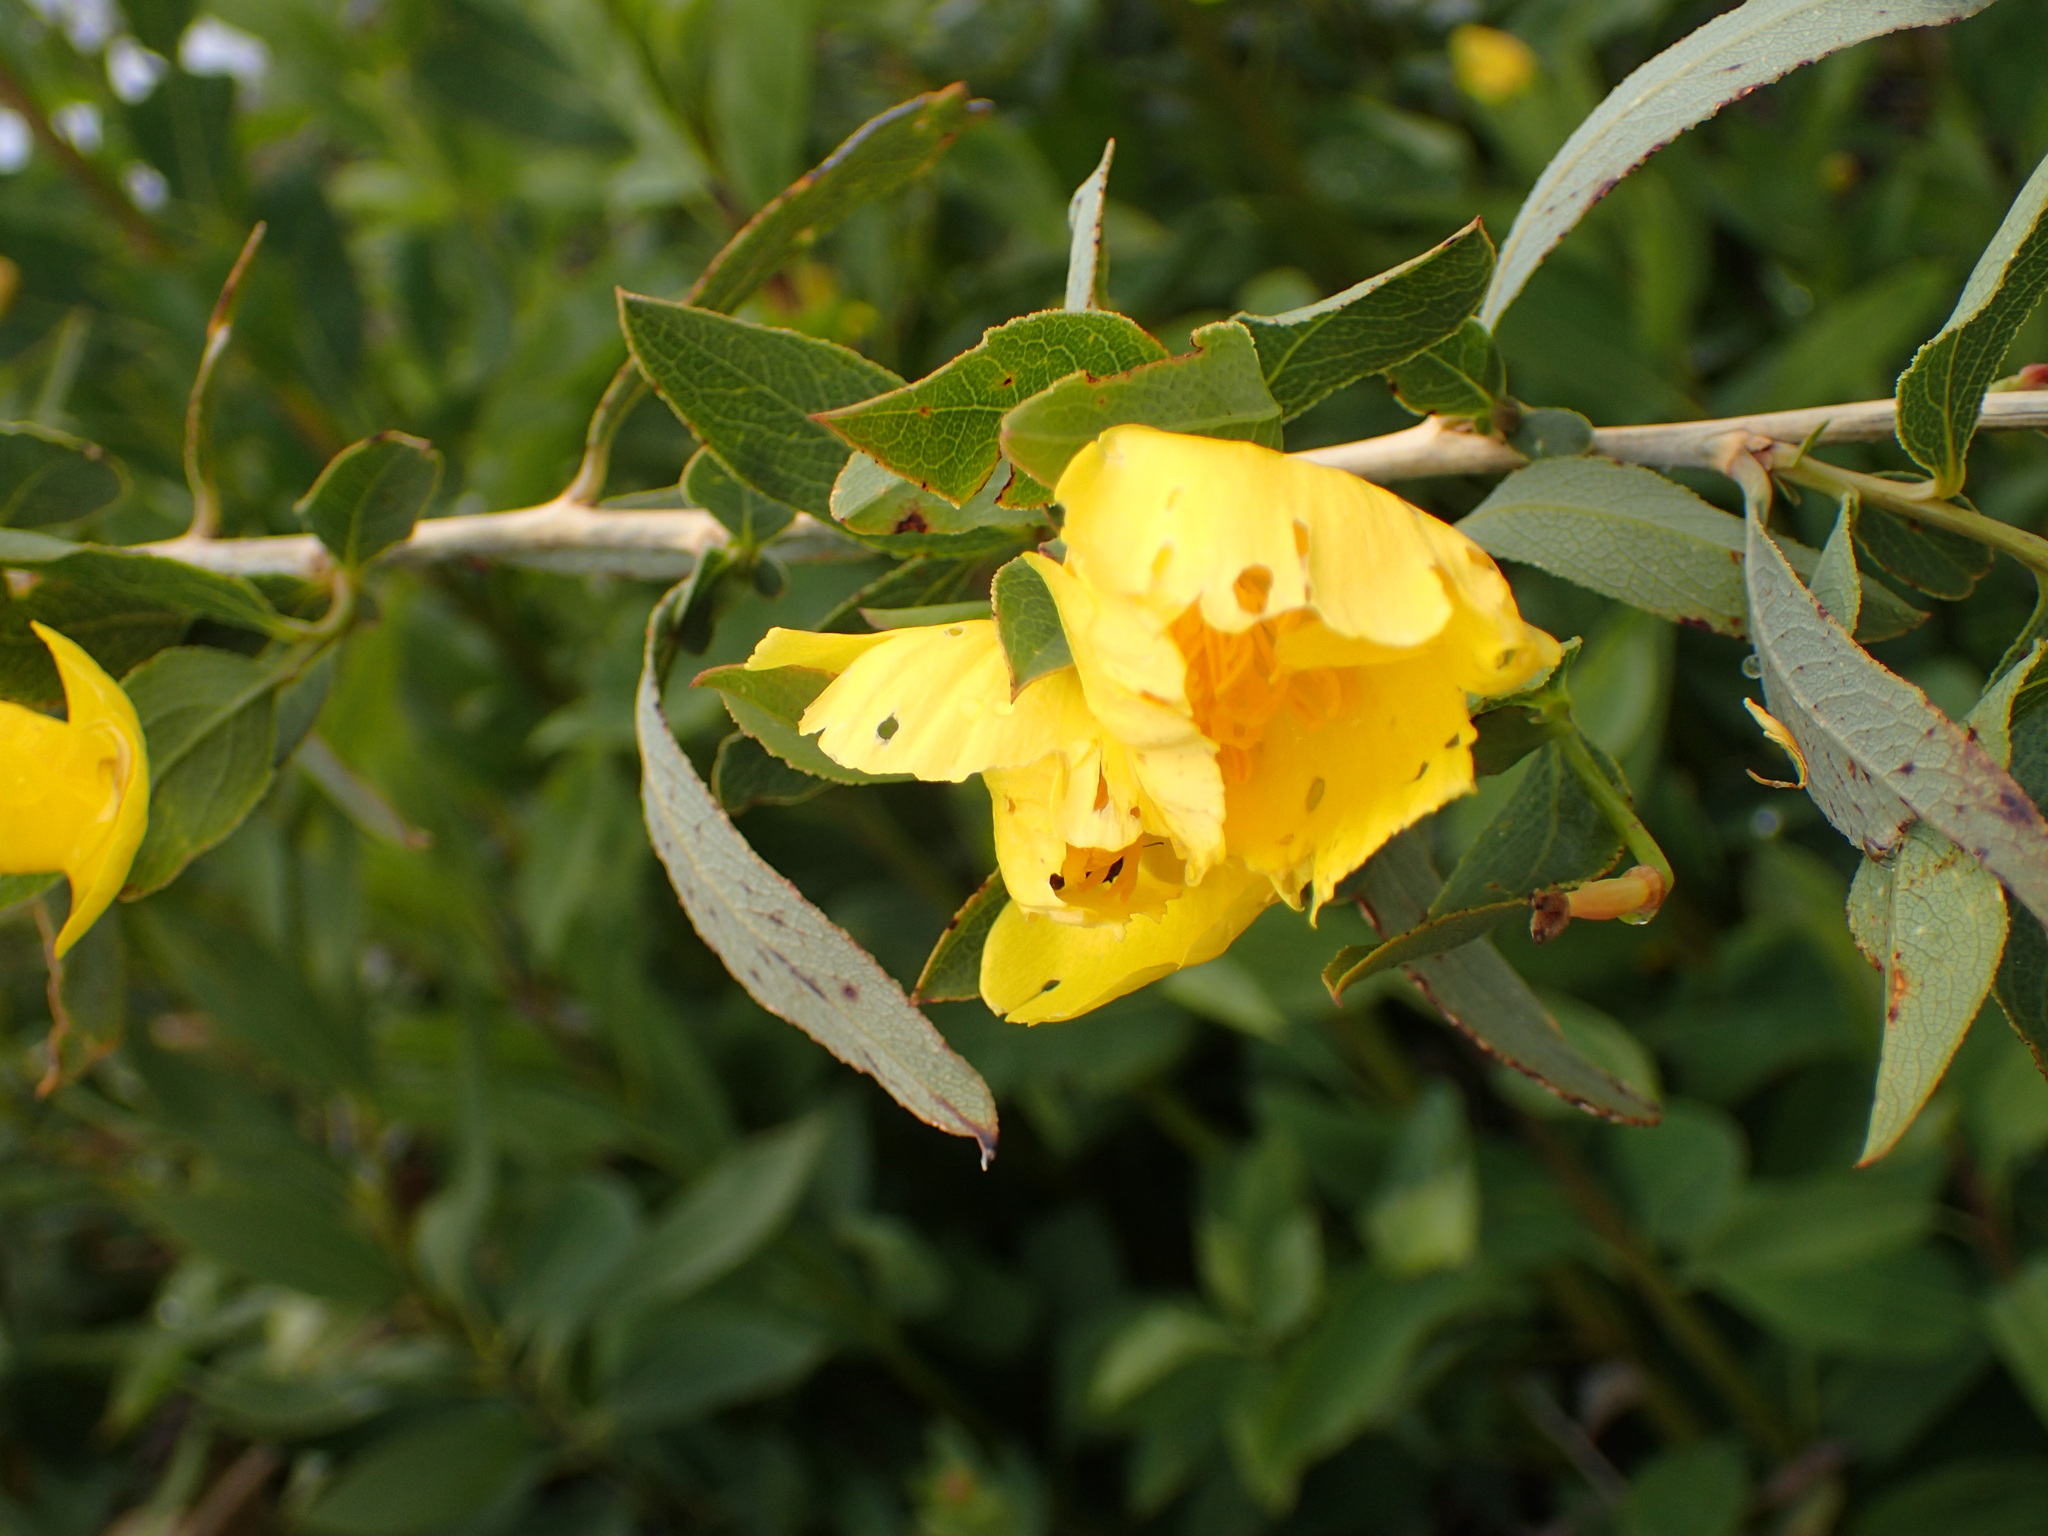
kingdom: Plantae
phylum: Tracheophyta
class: Magnoliopsida
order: Ranunculales
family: Papaveraceae
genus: Dendromecon
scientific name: Dendromecon rigida
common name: Tree poppy
